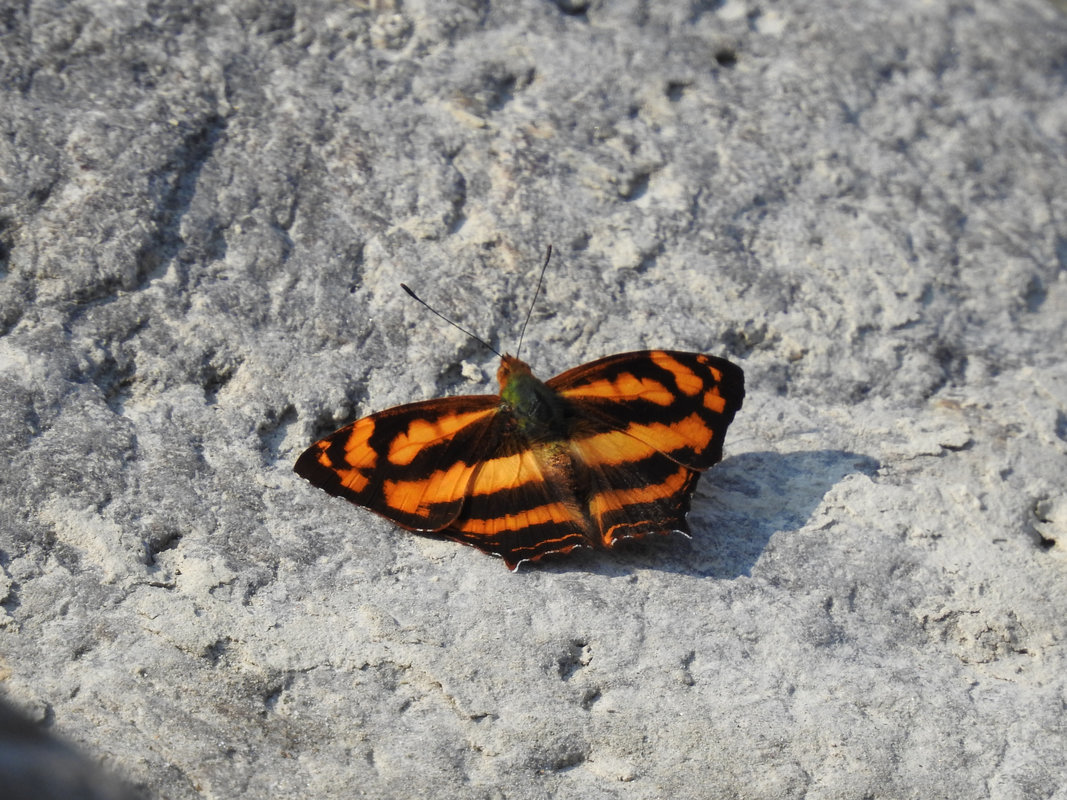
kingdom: Animalia
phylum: Arthropoda
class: Insecta
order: Lepidoptera
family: Nymphalidae
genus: Symbrenthia
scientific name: Symbrenthia hypselis
